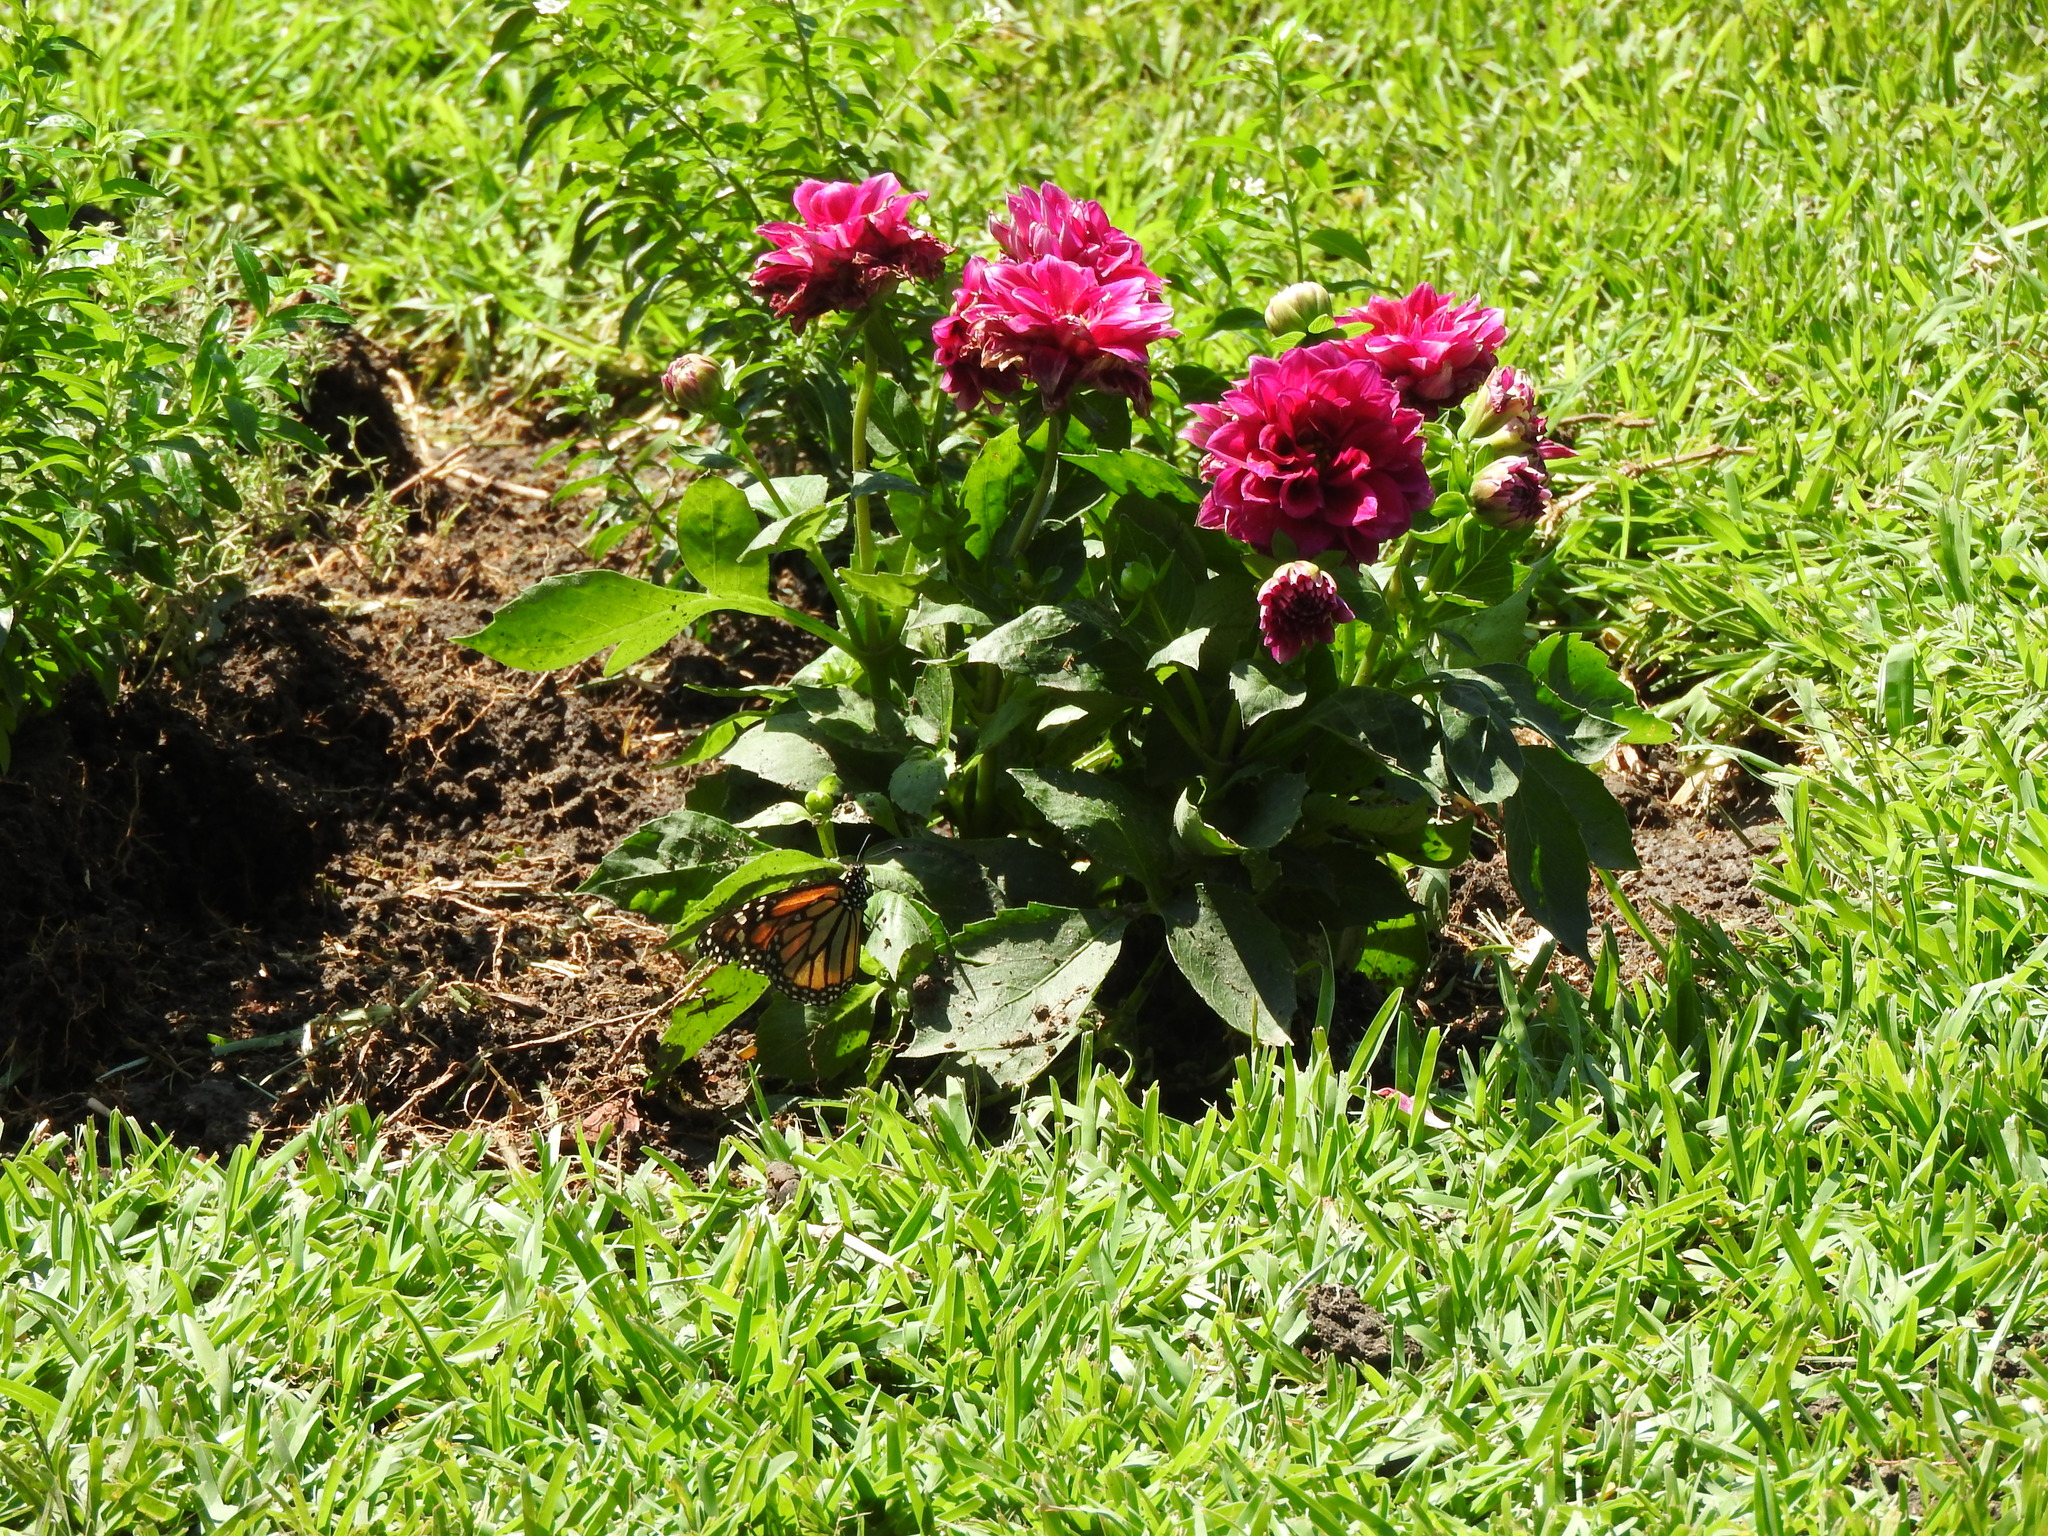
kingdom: Animalia
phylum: Arthropoda
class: Insecta
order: Lepidoptera
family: Nymphalidae
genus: Danaus
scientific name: Danaus plexippus
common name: Monarch
